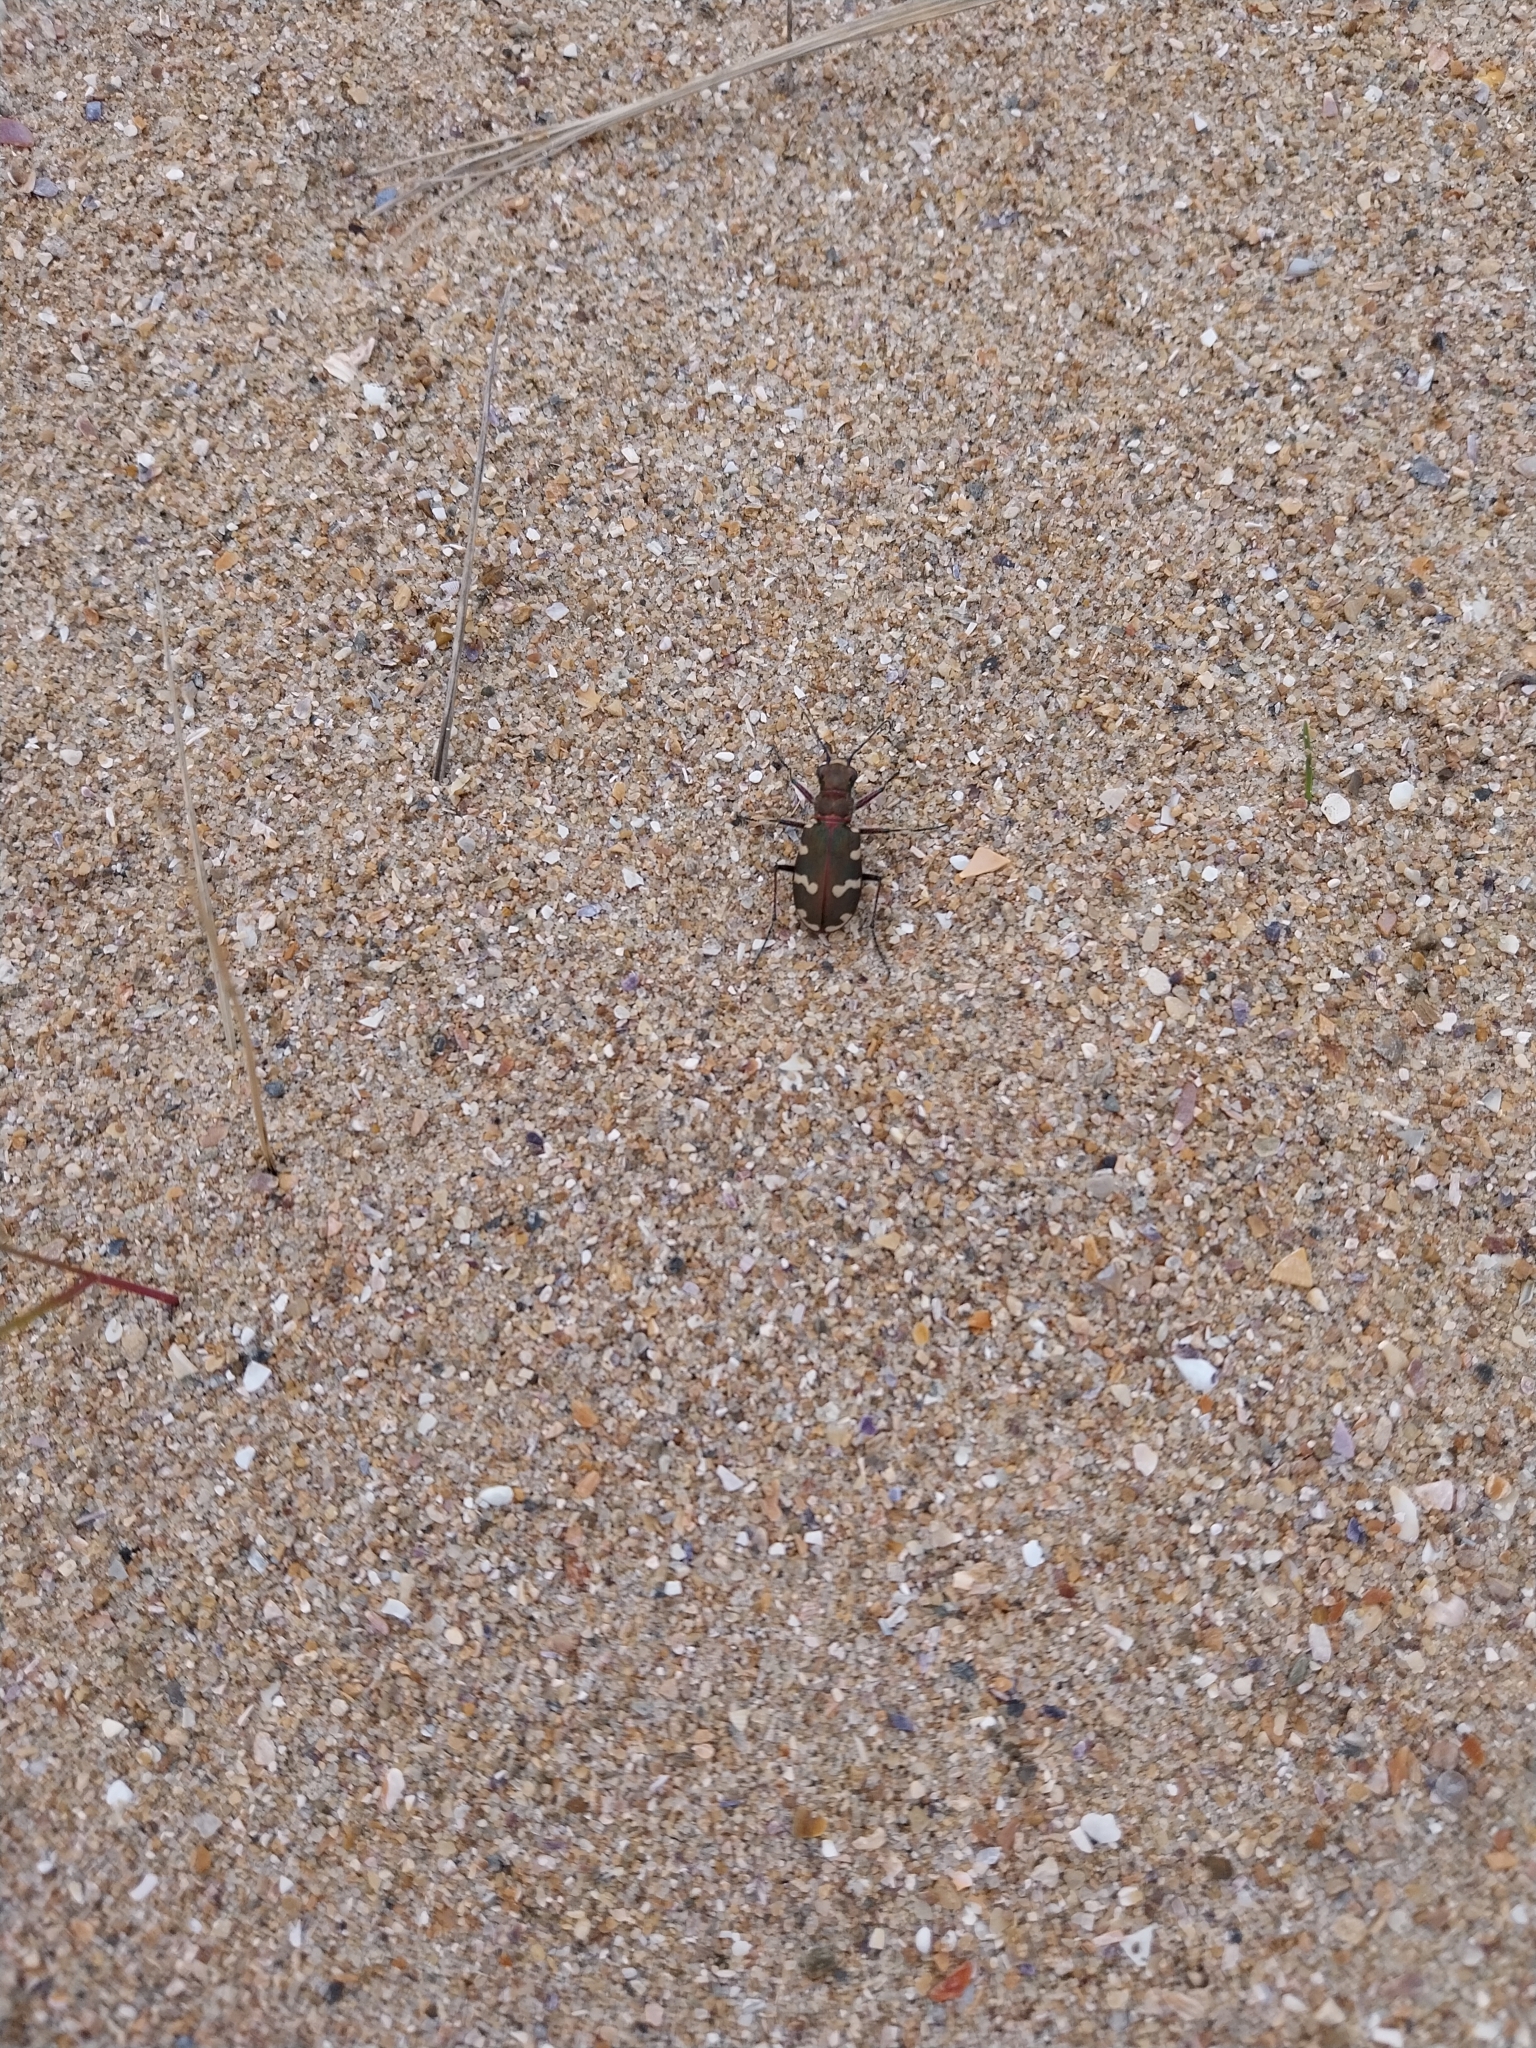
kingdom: Animalia
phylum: Arthropoda
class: Insecta
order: Coleoptera
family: Carabidae
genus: Cicindela
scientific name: Cicindela hybrida
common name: Northern dune tiger beetle
